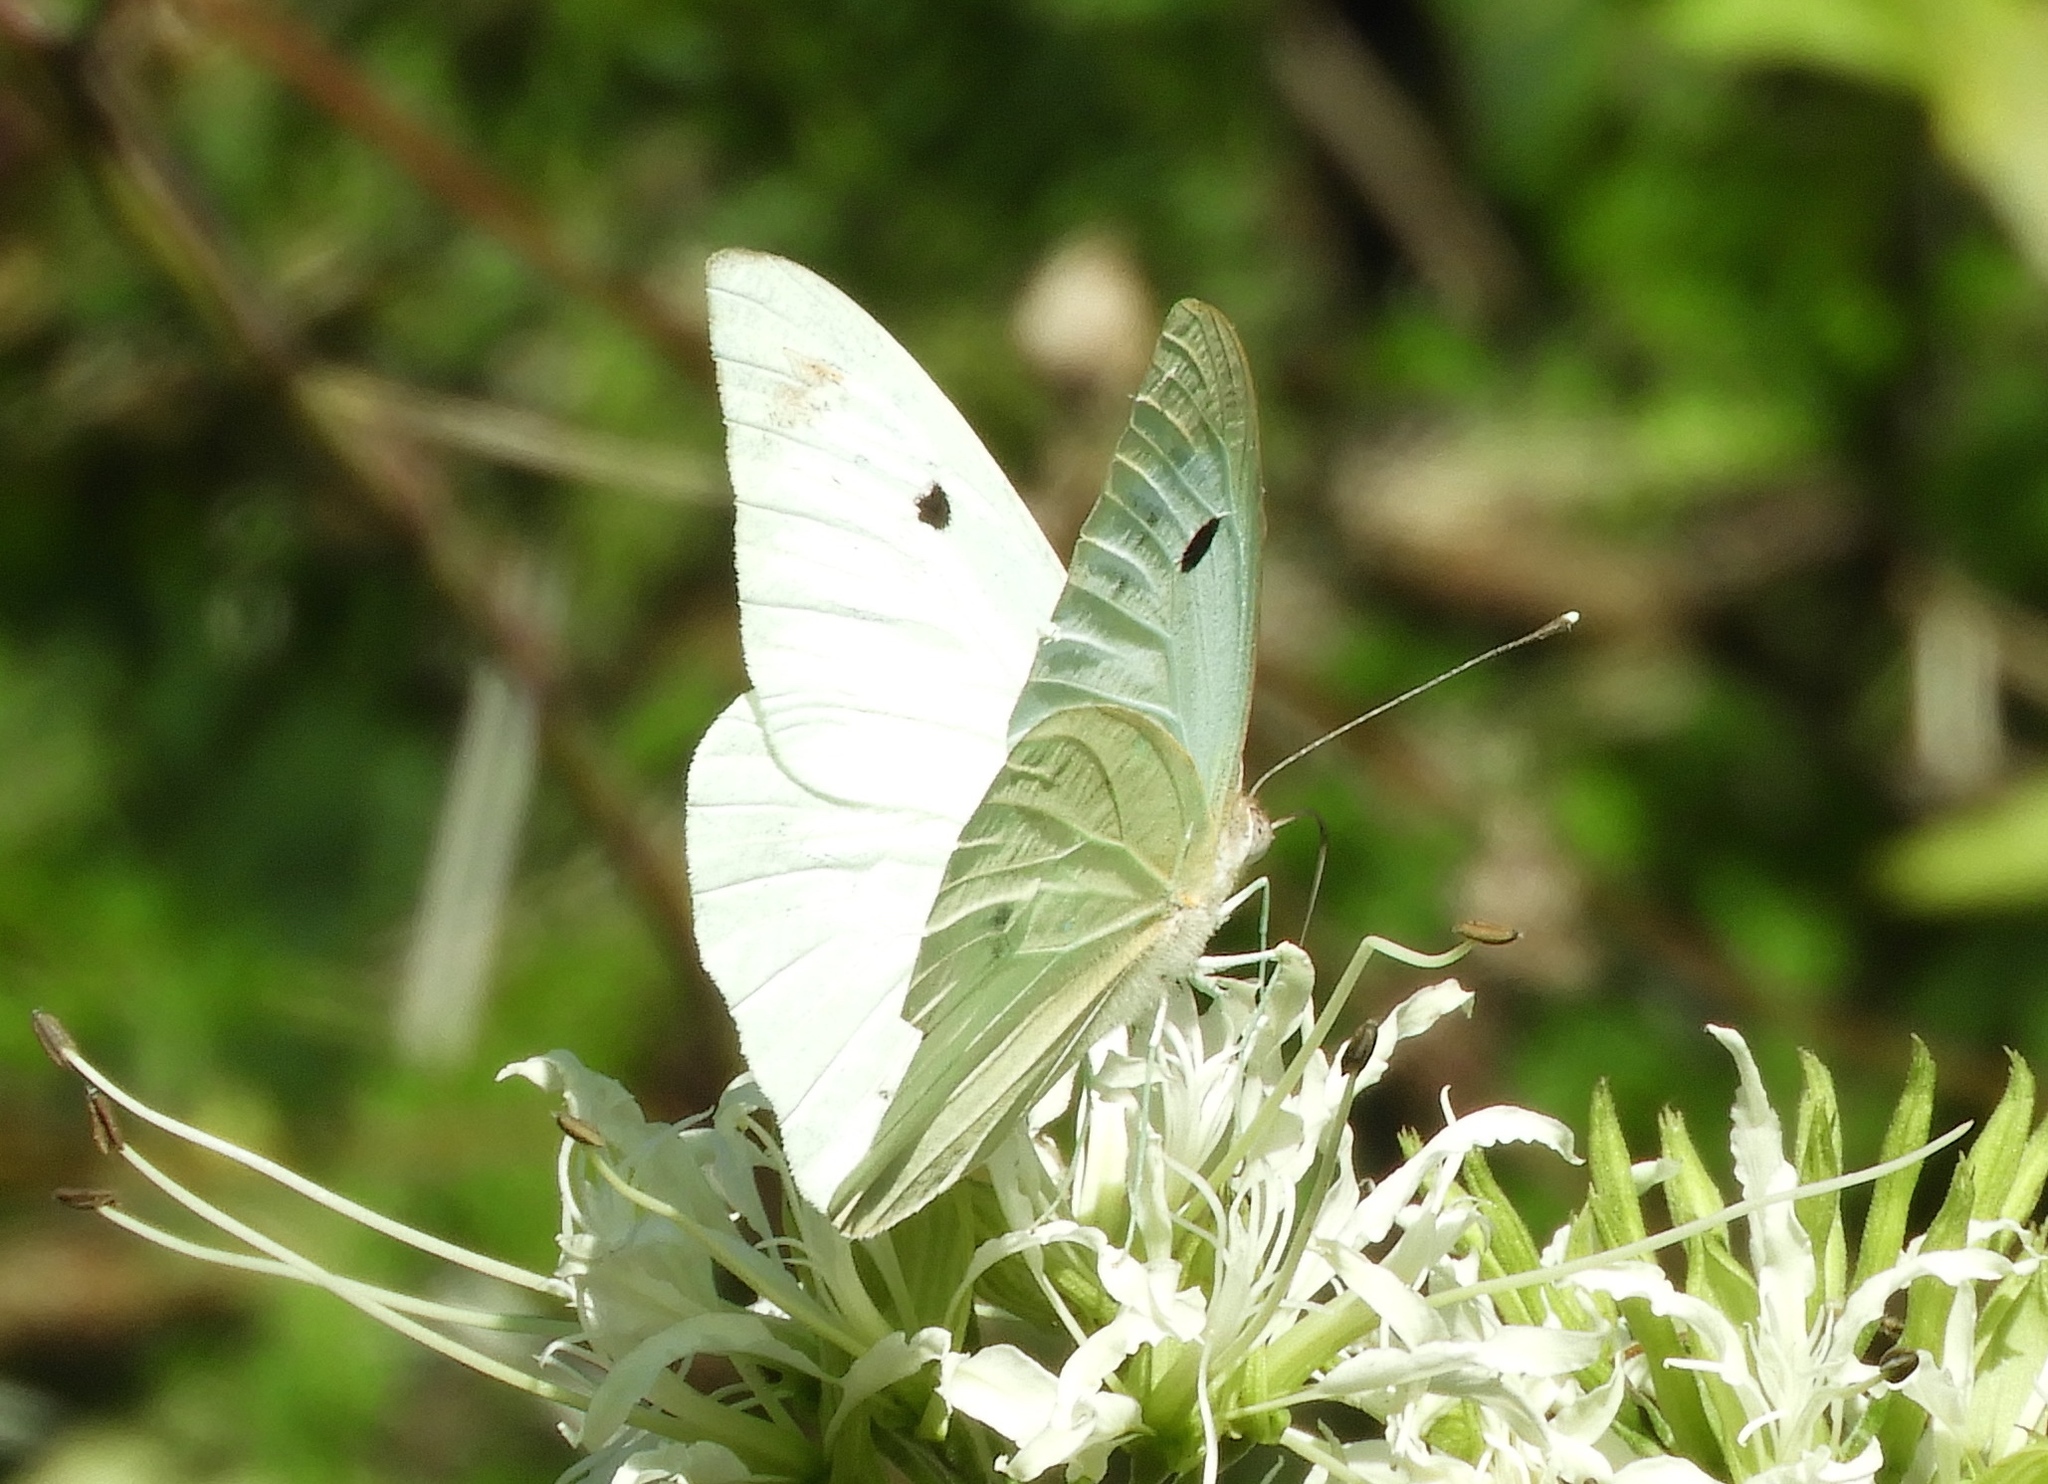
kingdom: Animalia
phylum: Arthropoda
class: Insecta
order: Lepidoptera
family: Pieridae
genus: Ganyra
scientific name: Ganyra josephina
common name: Giant white
